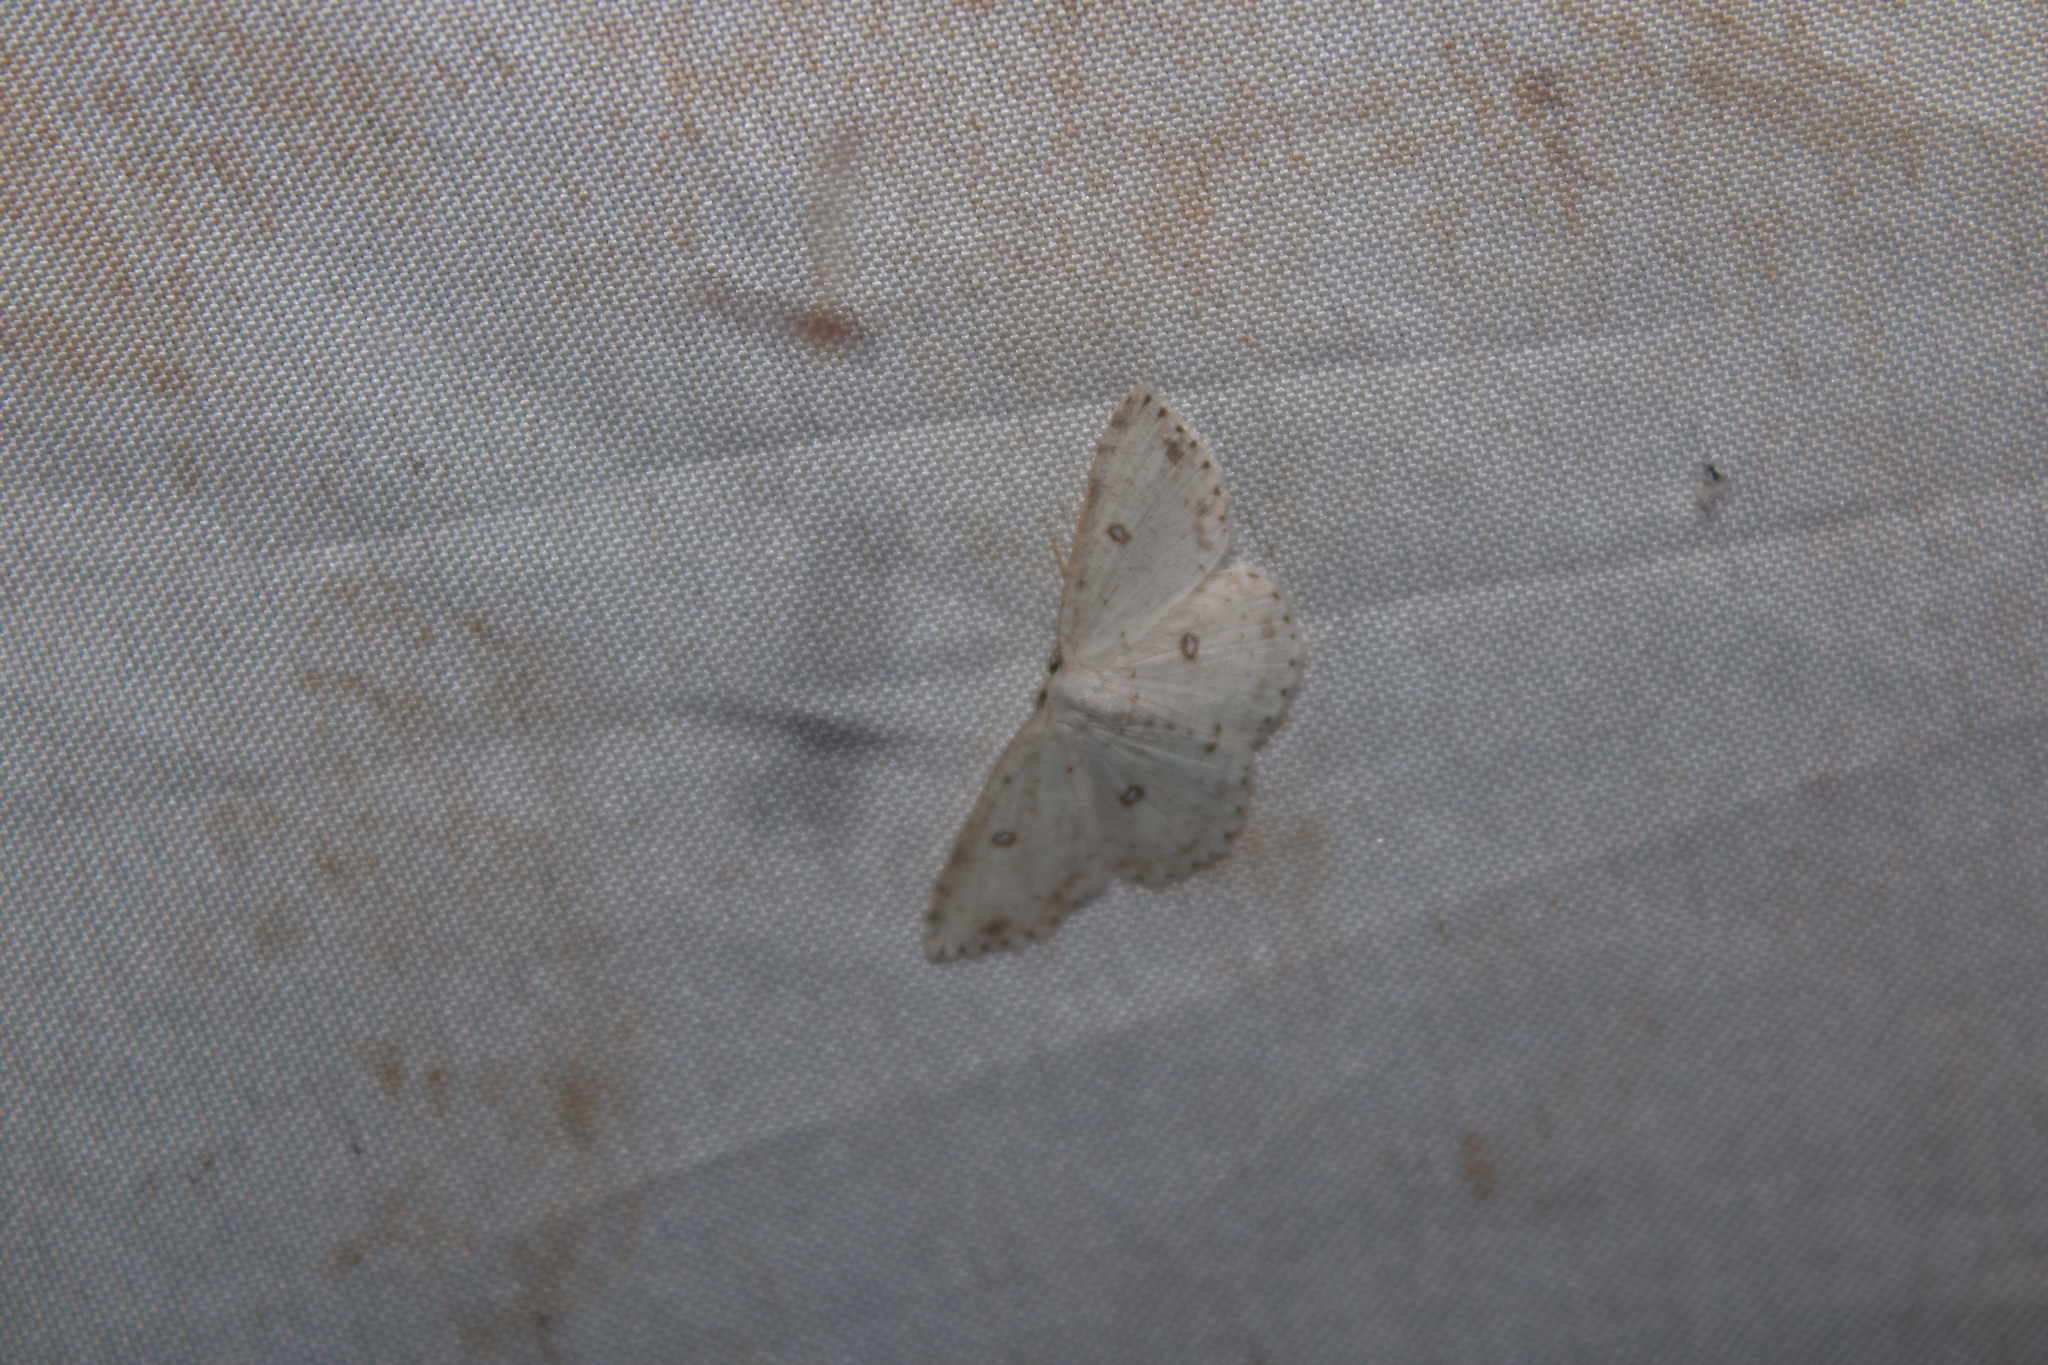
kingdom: Animalia
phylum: Arthropoda
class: Insecta
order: Lepidoptera
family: Geometridae
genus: Cyclophora
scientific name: Cyclophora pendulinaria
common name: Sweet fern geometer
